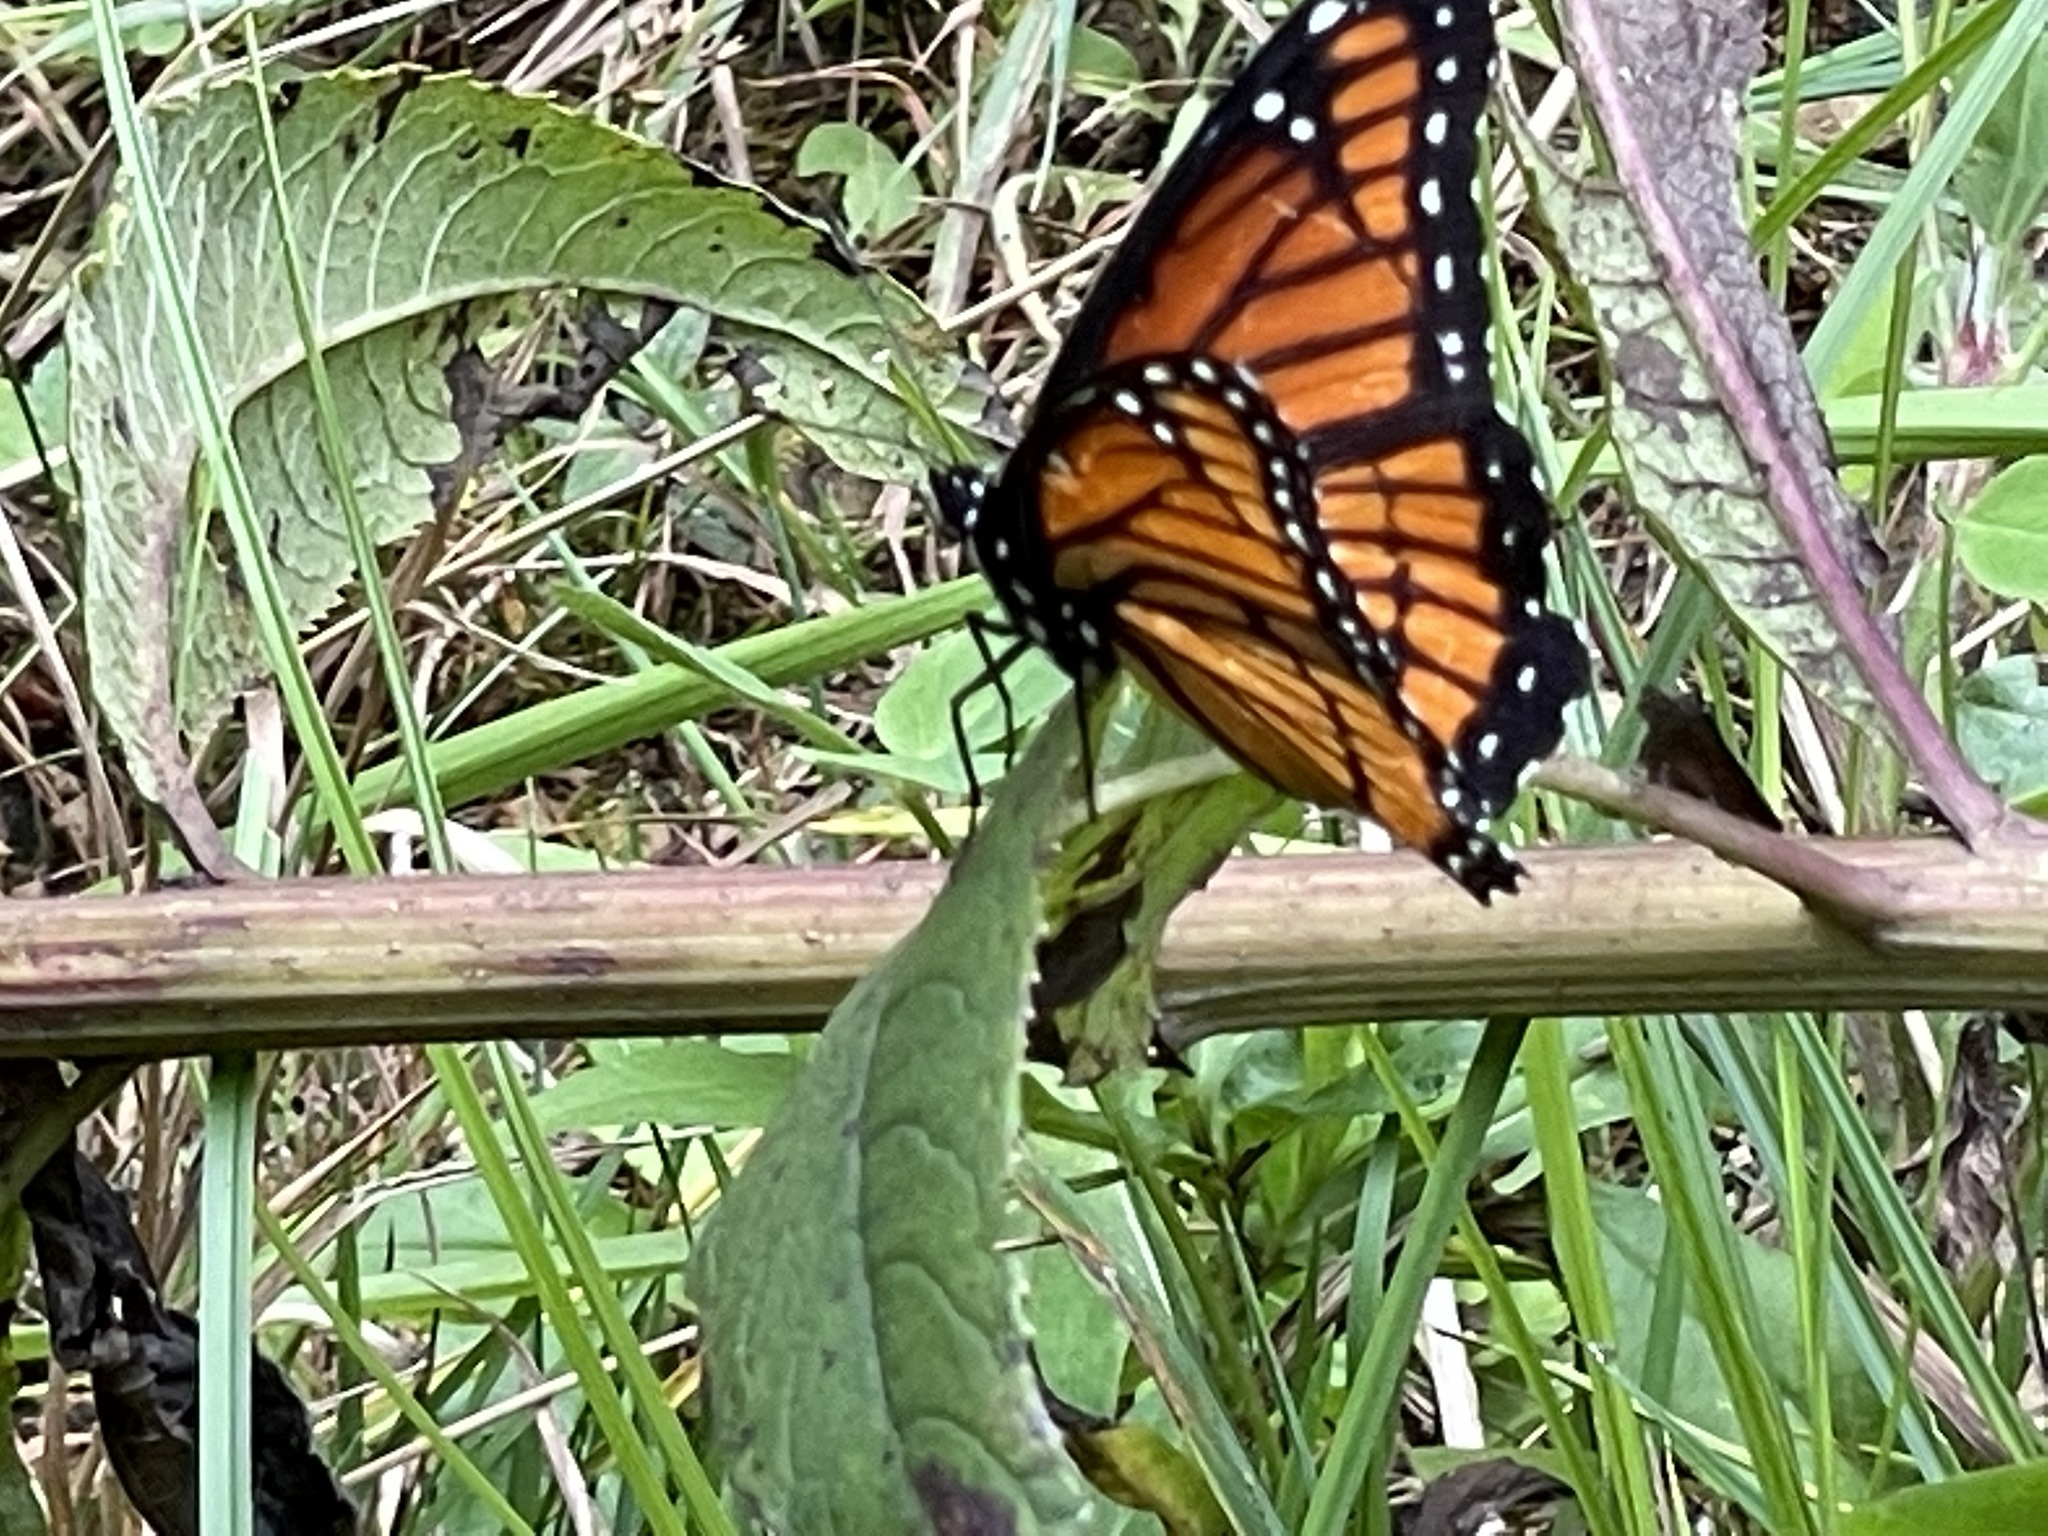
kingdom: Animalia
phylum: Arthropoda
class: Insecta
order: Lepidoptera
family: Nymphalidae
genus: Limenitis
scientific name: Limenitis archippus
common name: Viceroy
